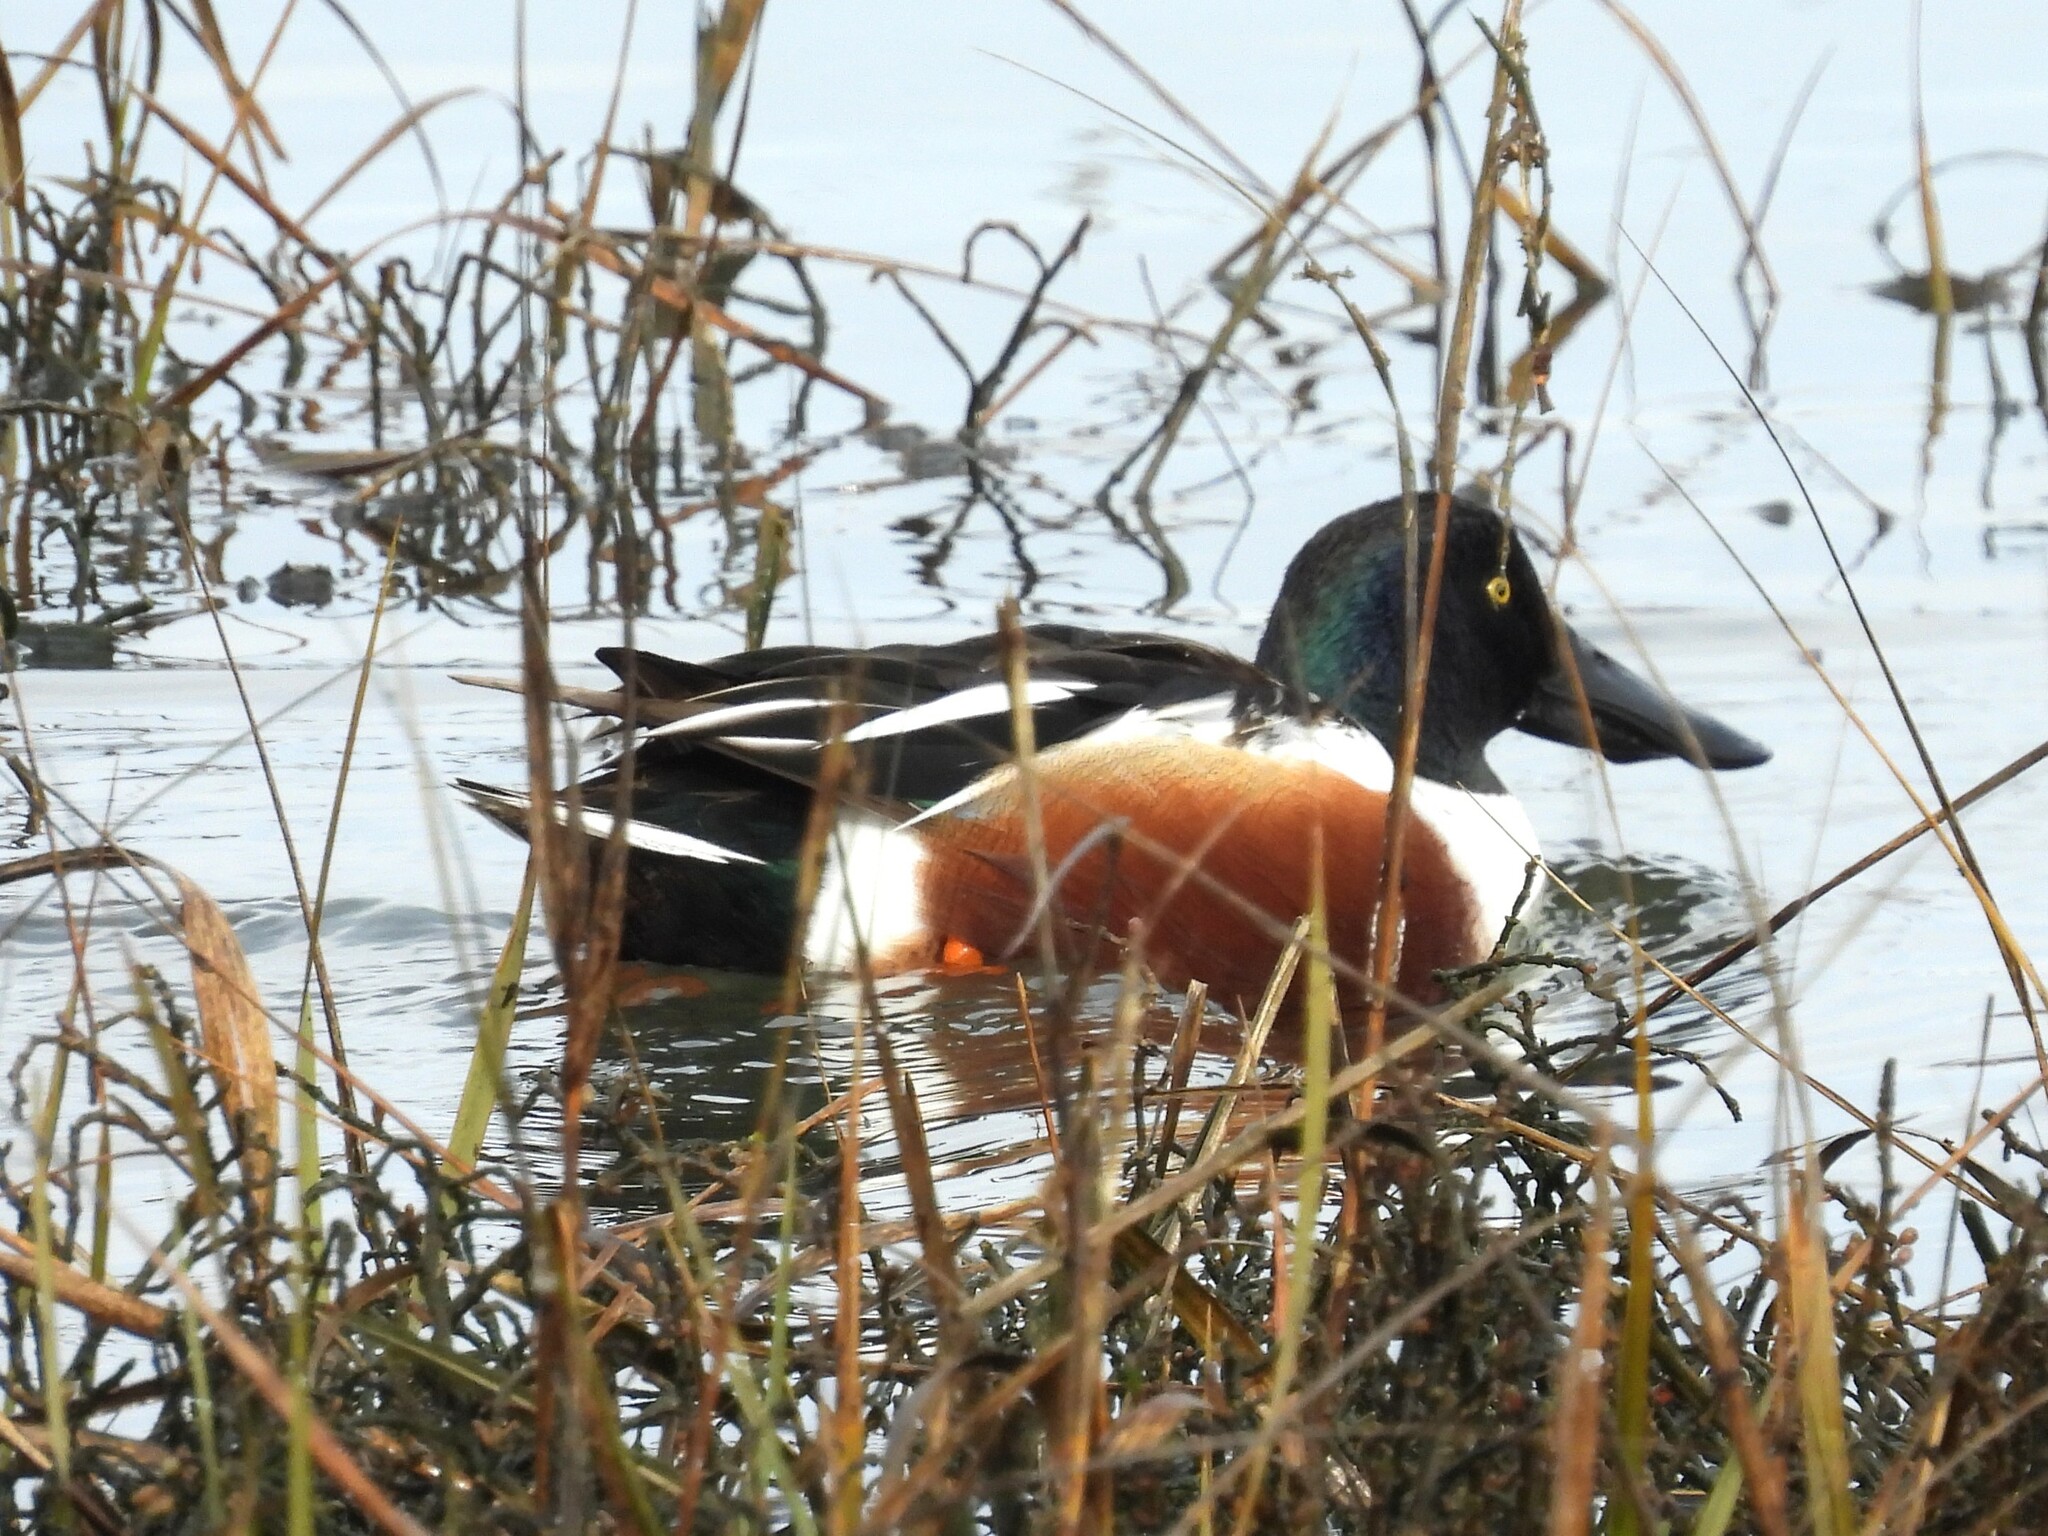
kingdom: Animalia
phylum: Chordata
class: Aves
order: Anseriformes
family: Anatidae
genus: Spatula
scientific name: Spatula clypeata
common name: Northern shoveler
